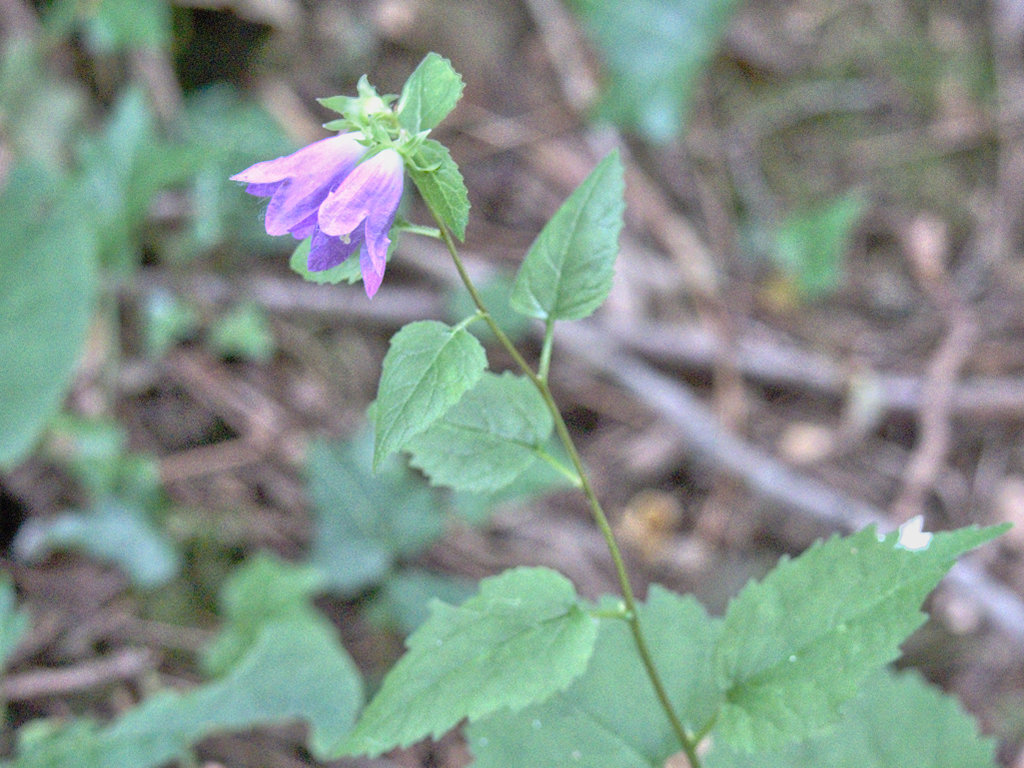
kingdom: Plantae
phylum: Tracheophyta
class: Magnoliopsida
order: Asterales
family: Campanulaceae
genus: Campanula
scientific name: Campanula trachelium
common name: Nettle-leaved bellflower
